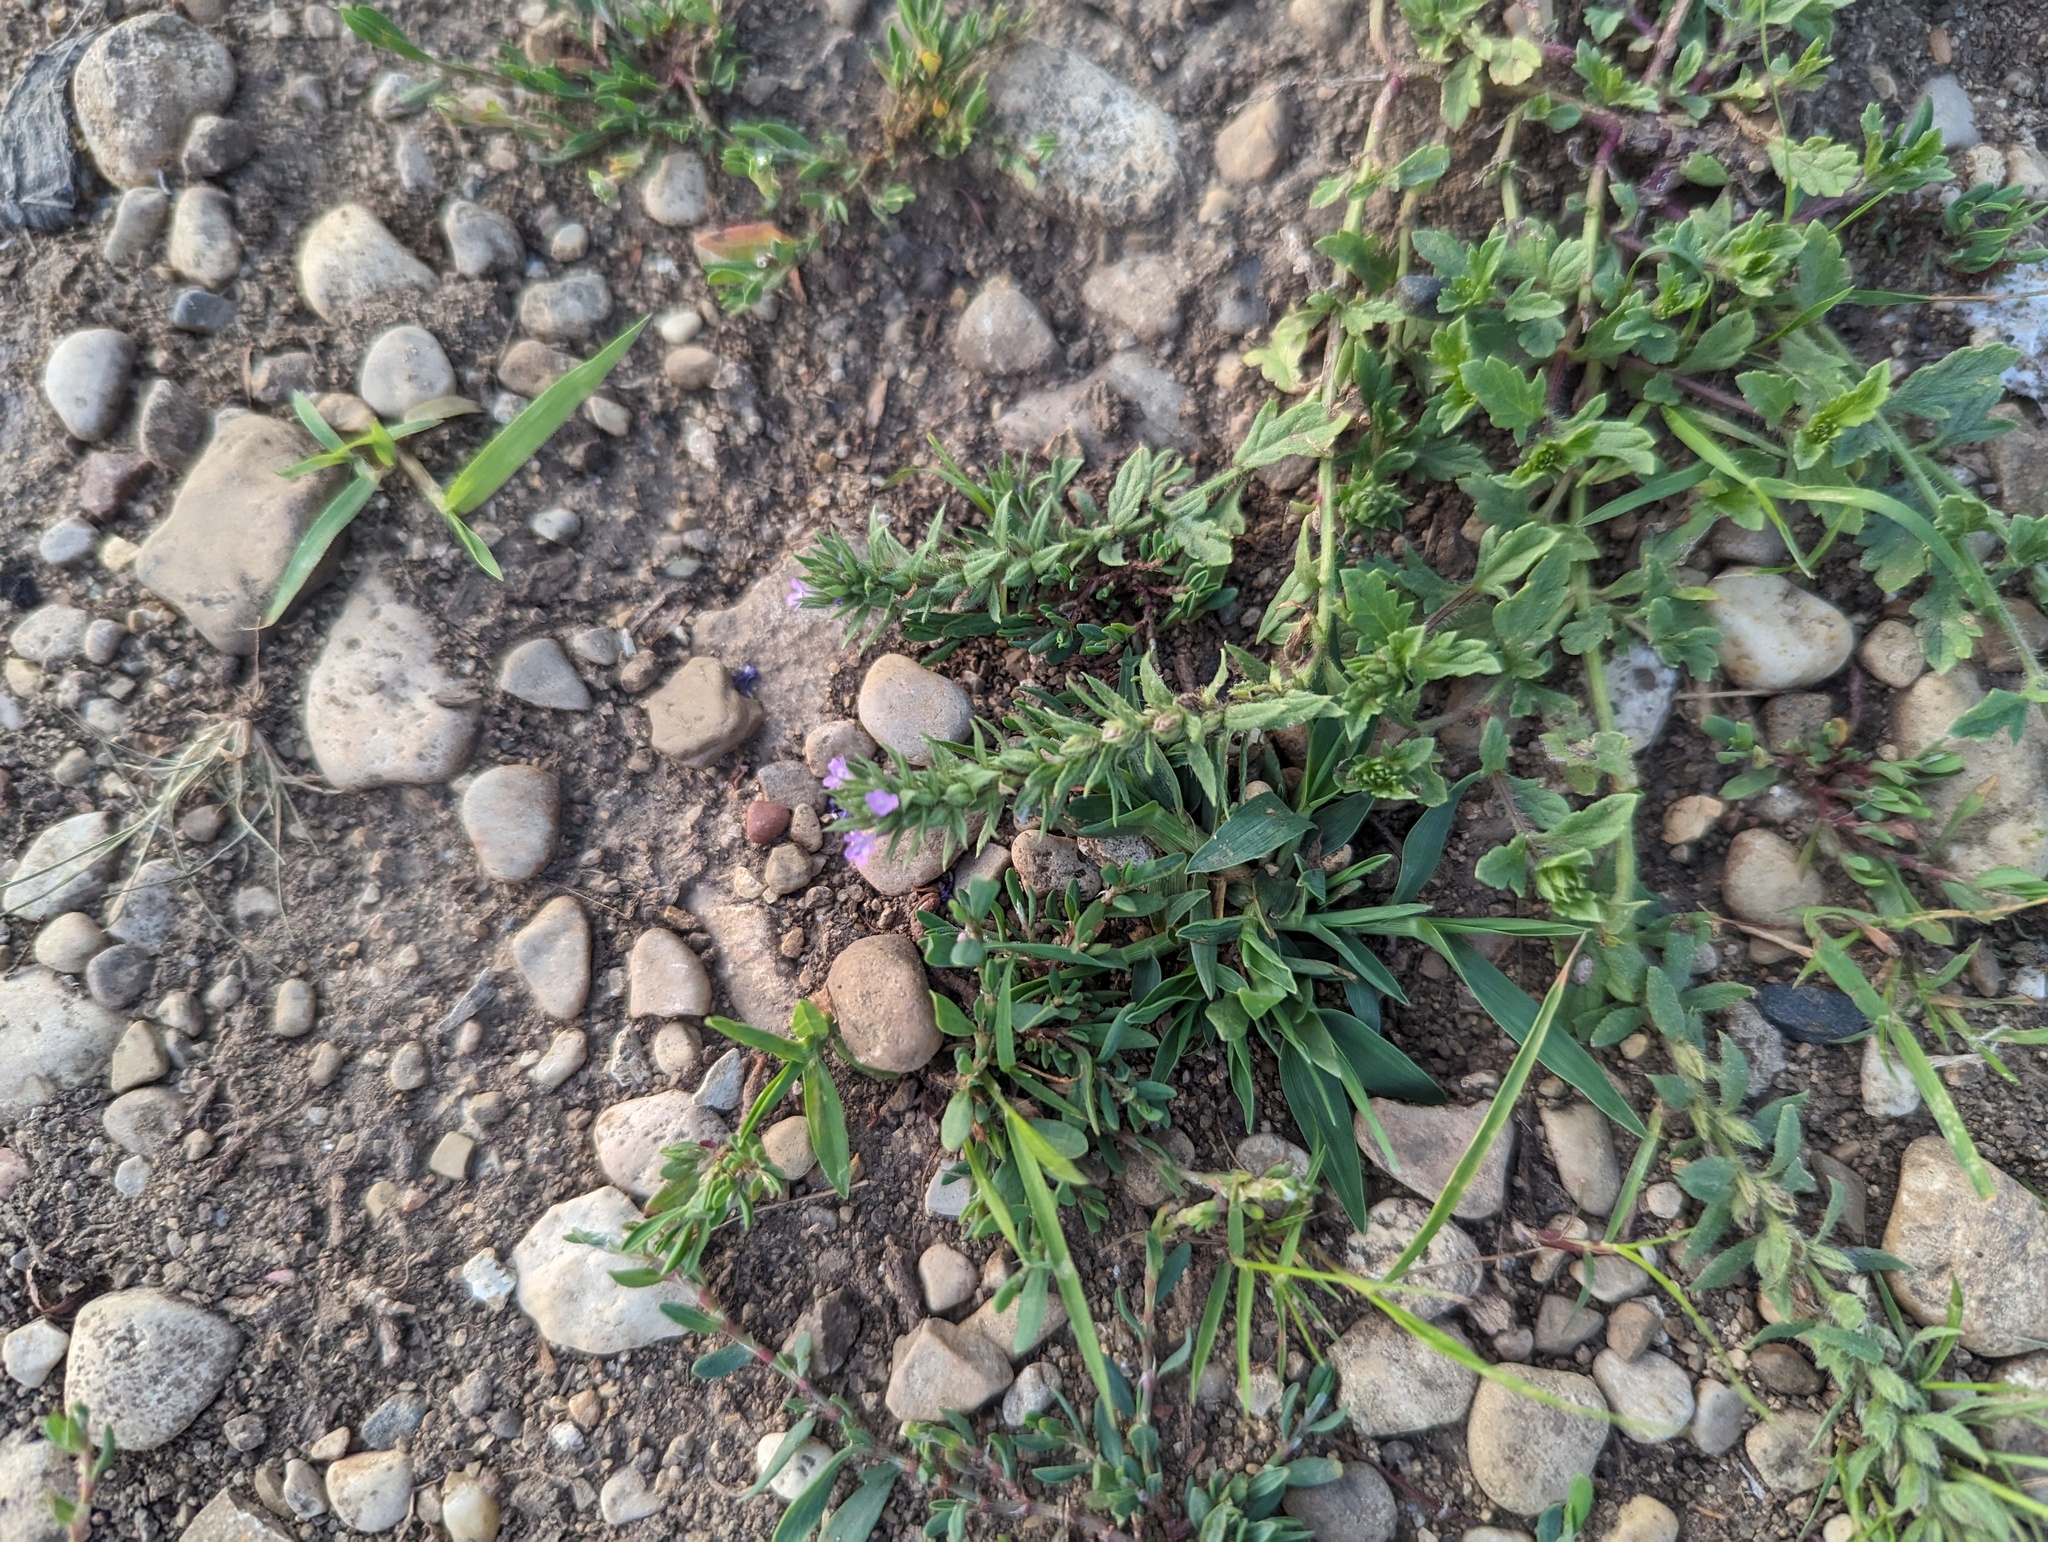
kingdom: Plantae
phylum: Tracheophyta
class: Magnoliopsida
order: Lamiales
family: Verbenaceae
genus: Verbena
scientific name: Verbena bracteata
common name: Bracted vervain
